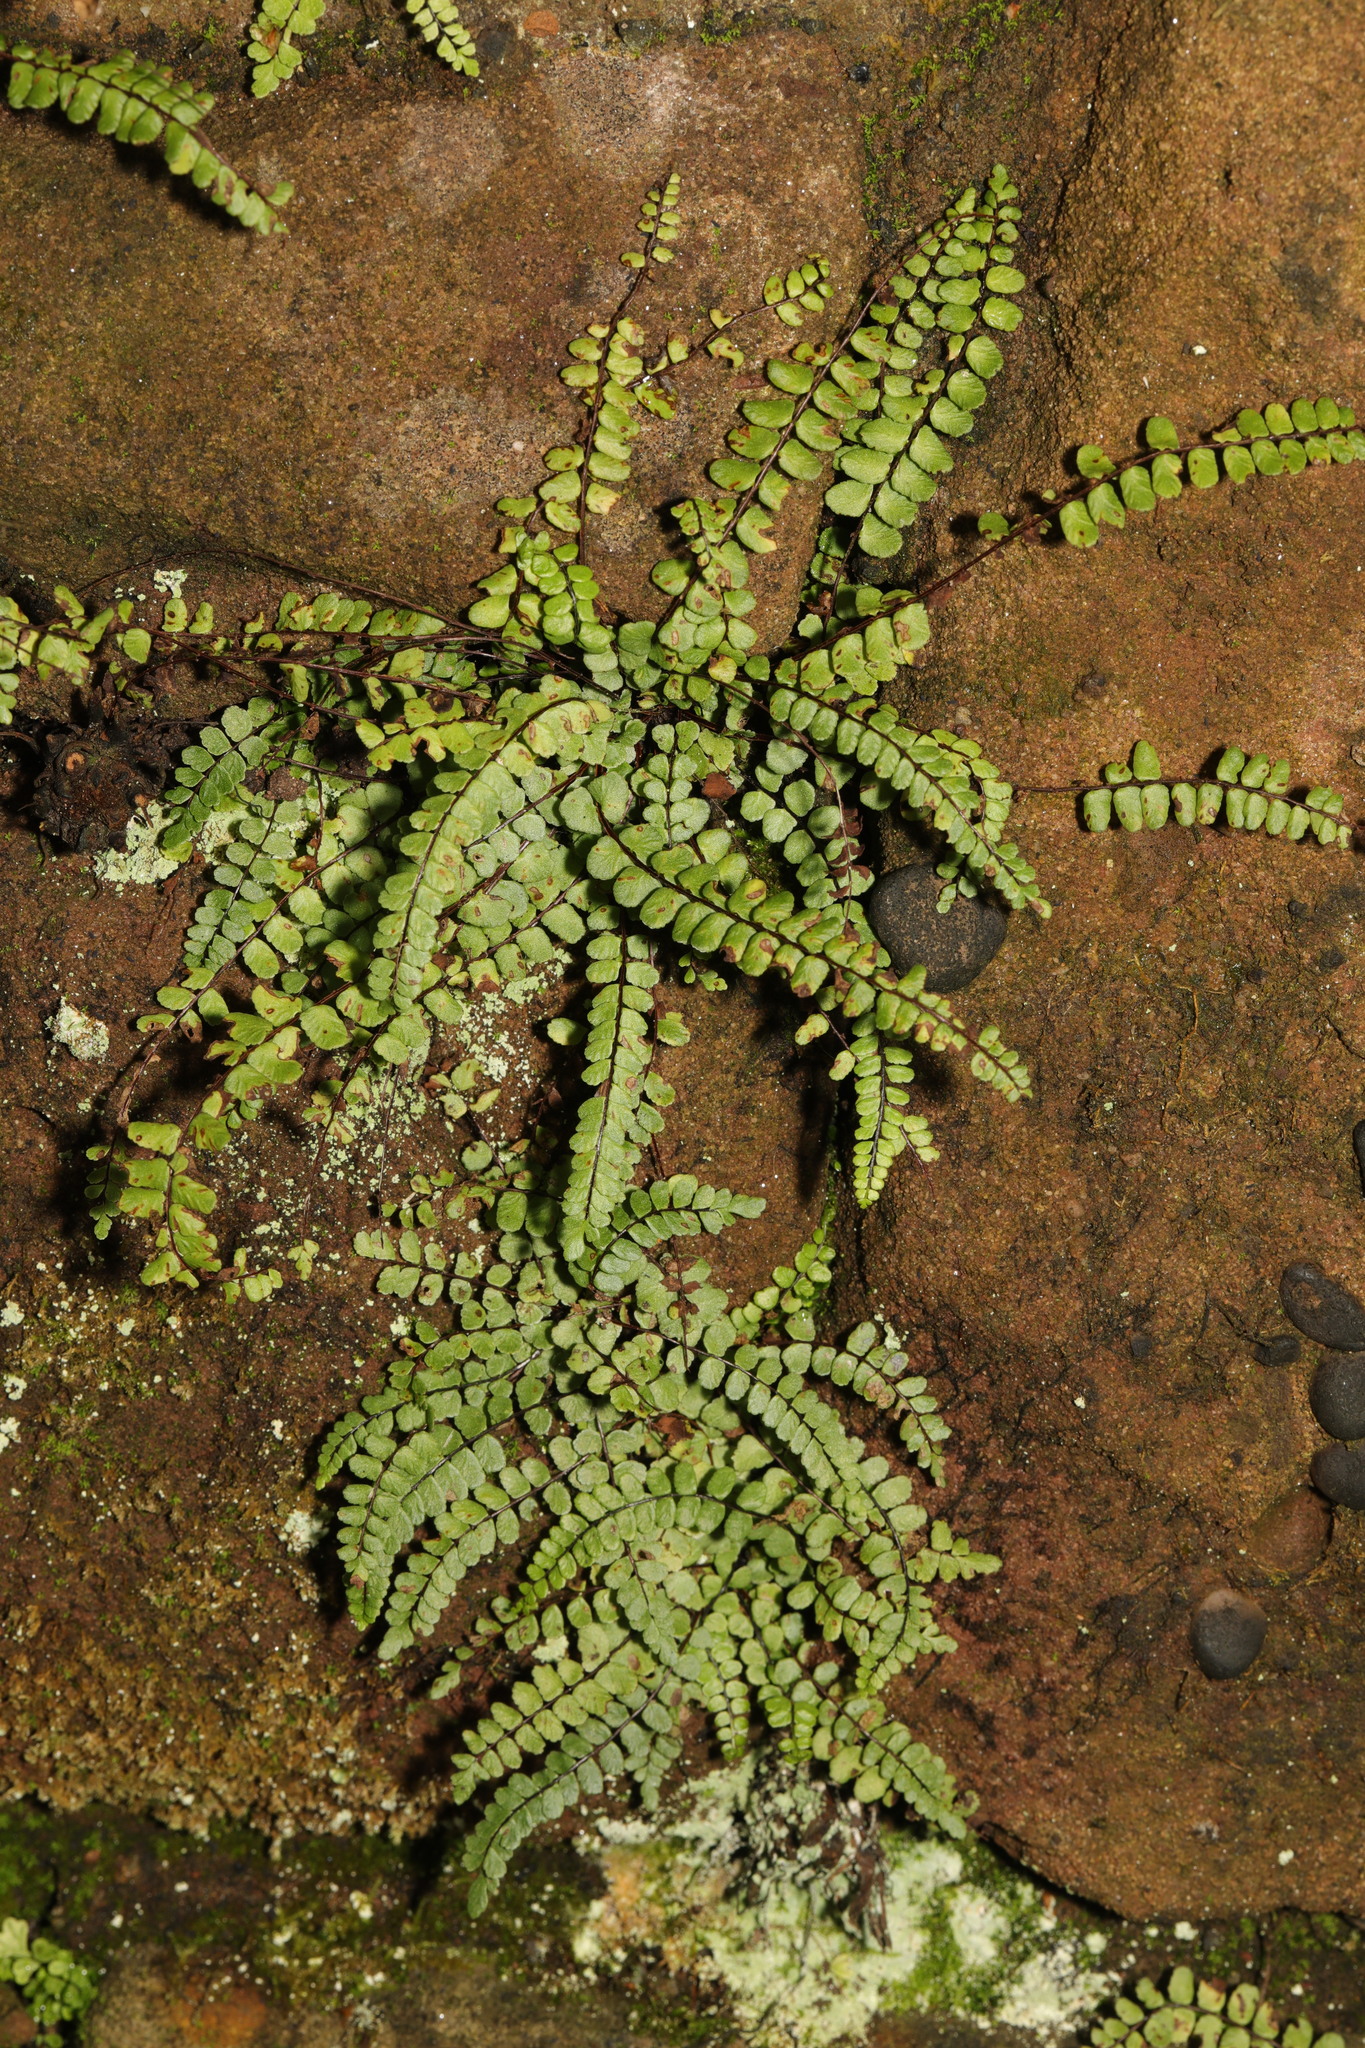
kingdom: Plantae
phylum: Tracheophyta
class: Polypodiopsida
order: Polypodiales
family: Aspleniaceae
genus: Asplenium
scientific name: Asplenium trichomanes
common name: Maidenhair spleenwort
